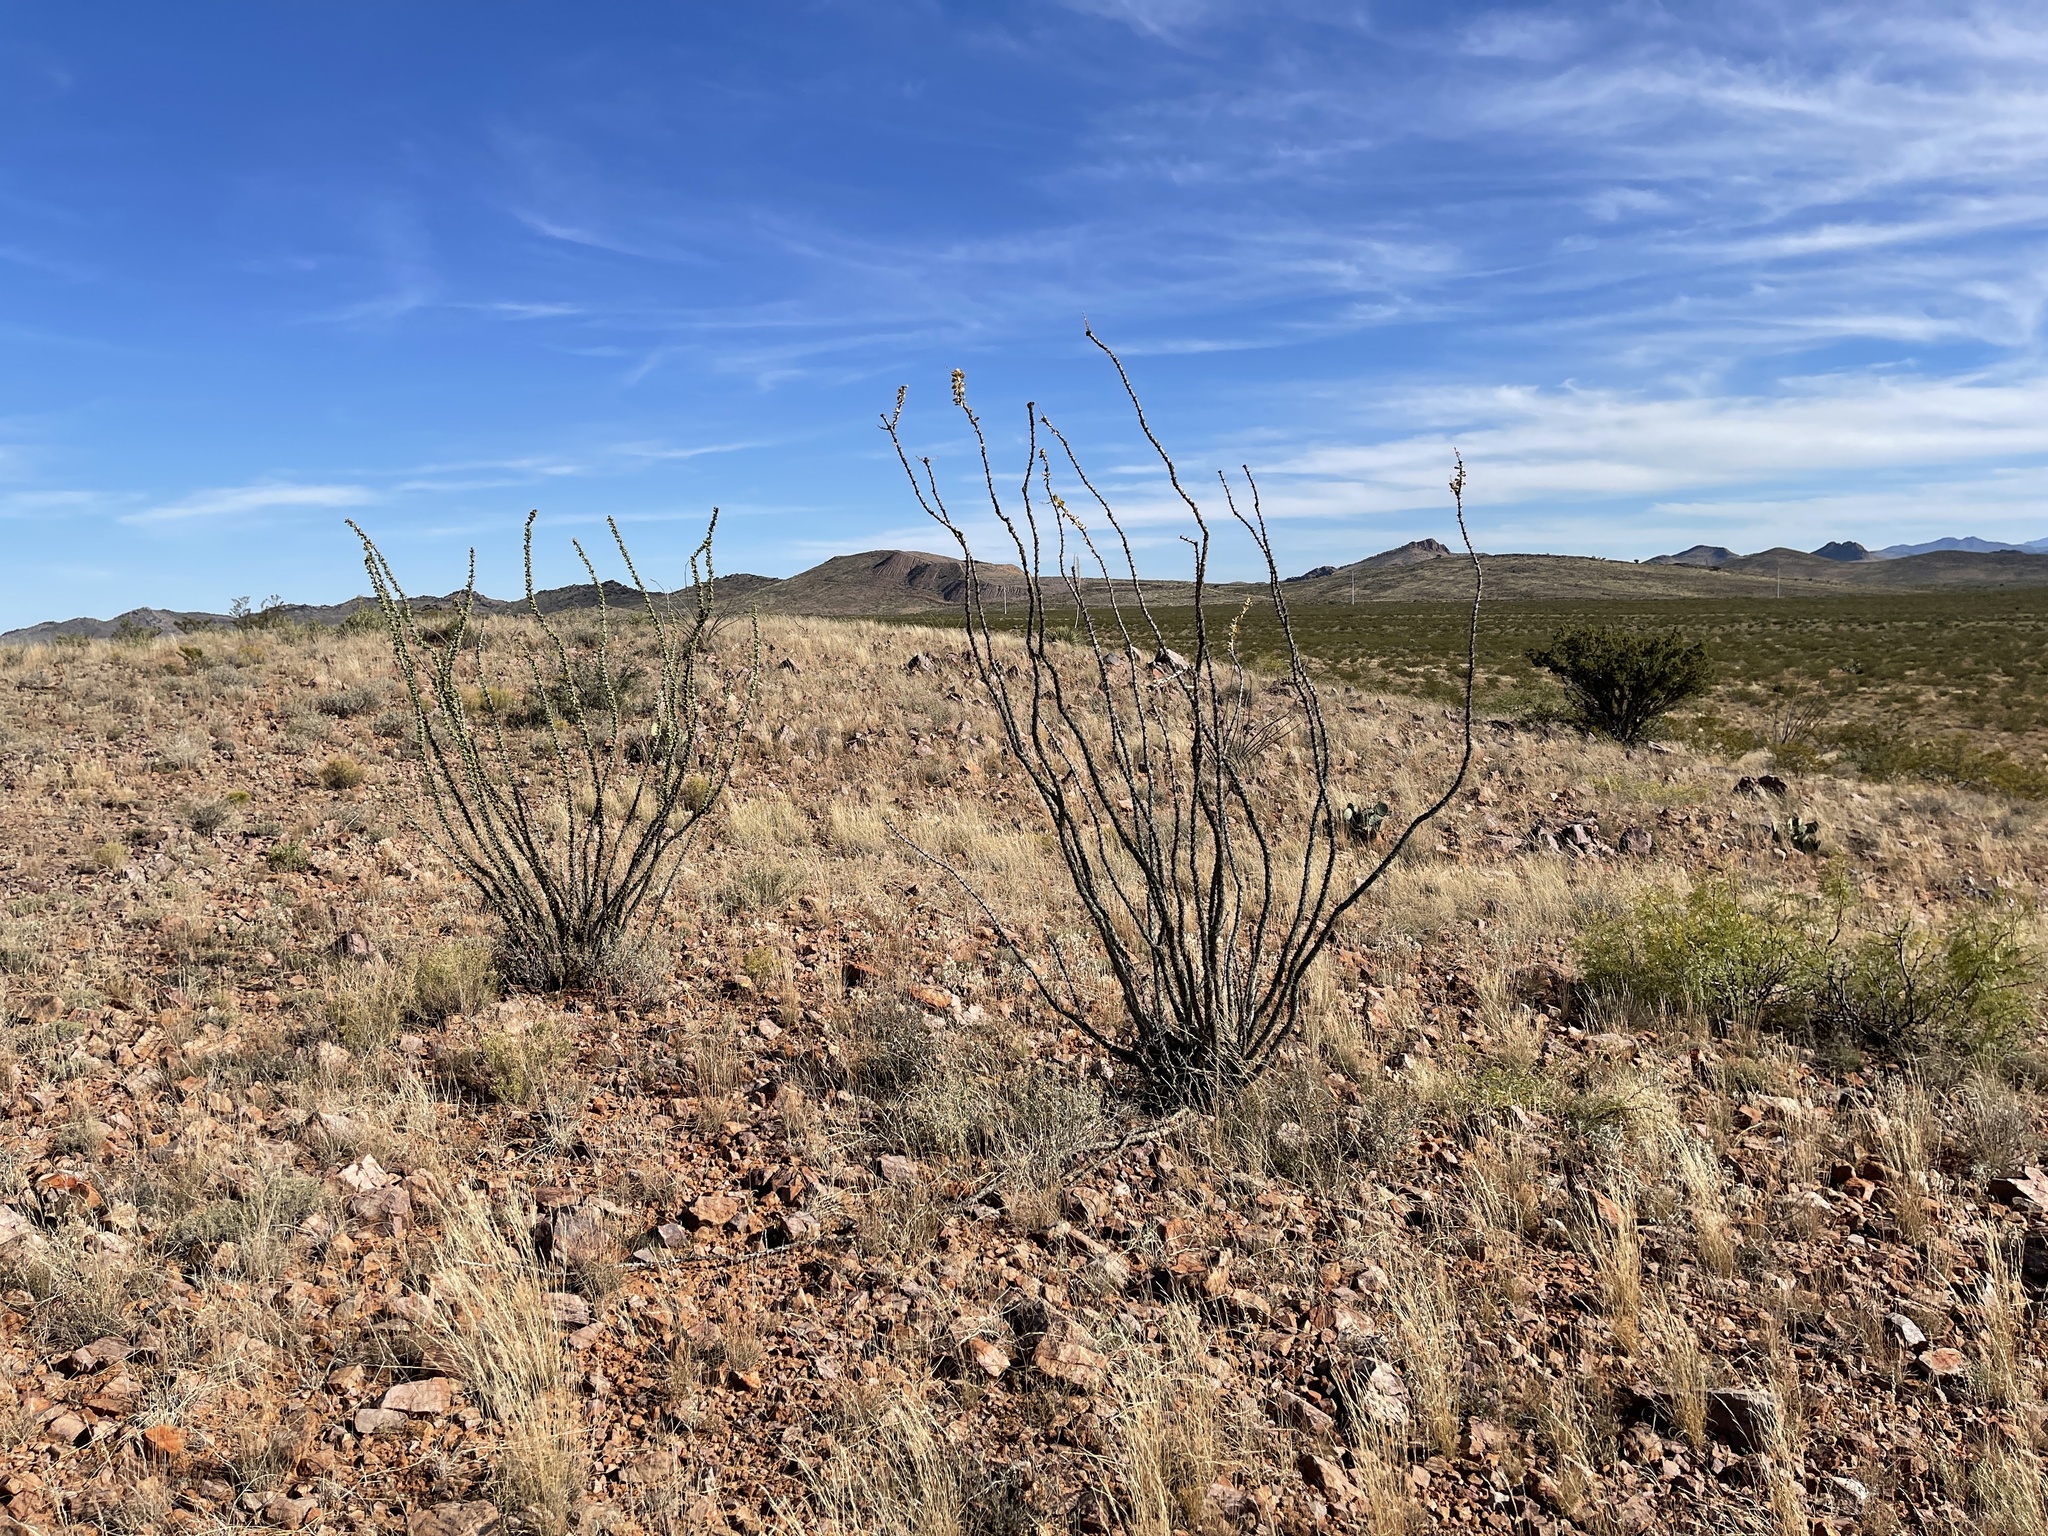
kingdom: Plantae
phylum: Tracheophyta
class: Magnoliopsida
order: Ericales
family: Fouquieriaceae
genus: Fouquieria
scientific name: Fouquieria splendens
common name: Vine-cactus
